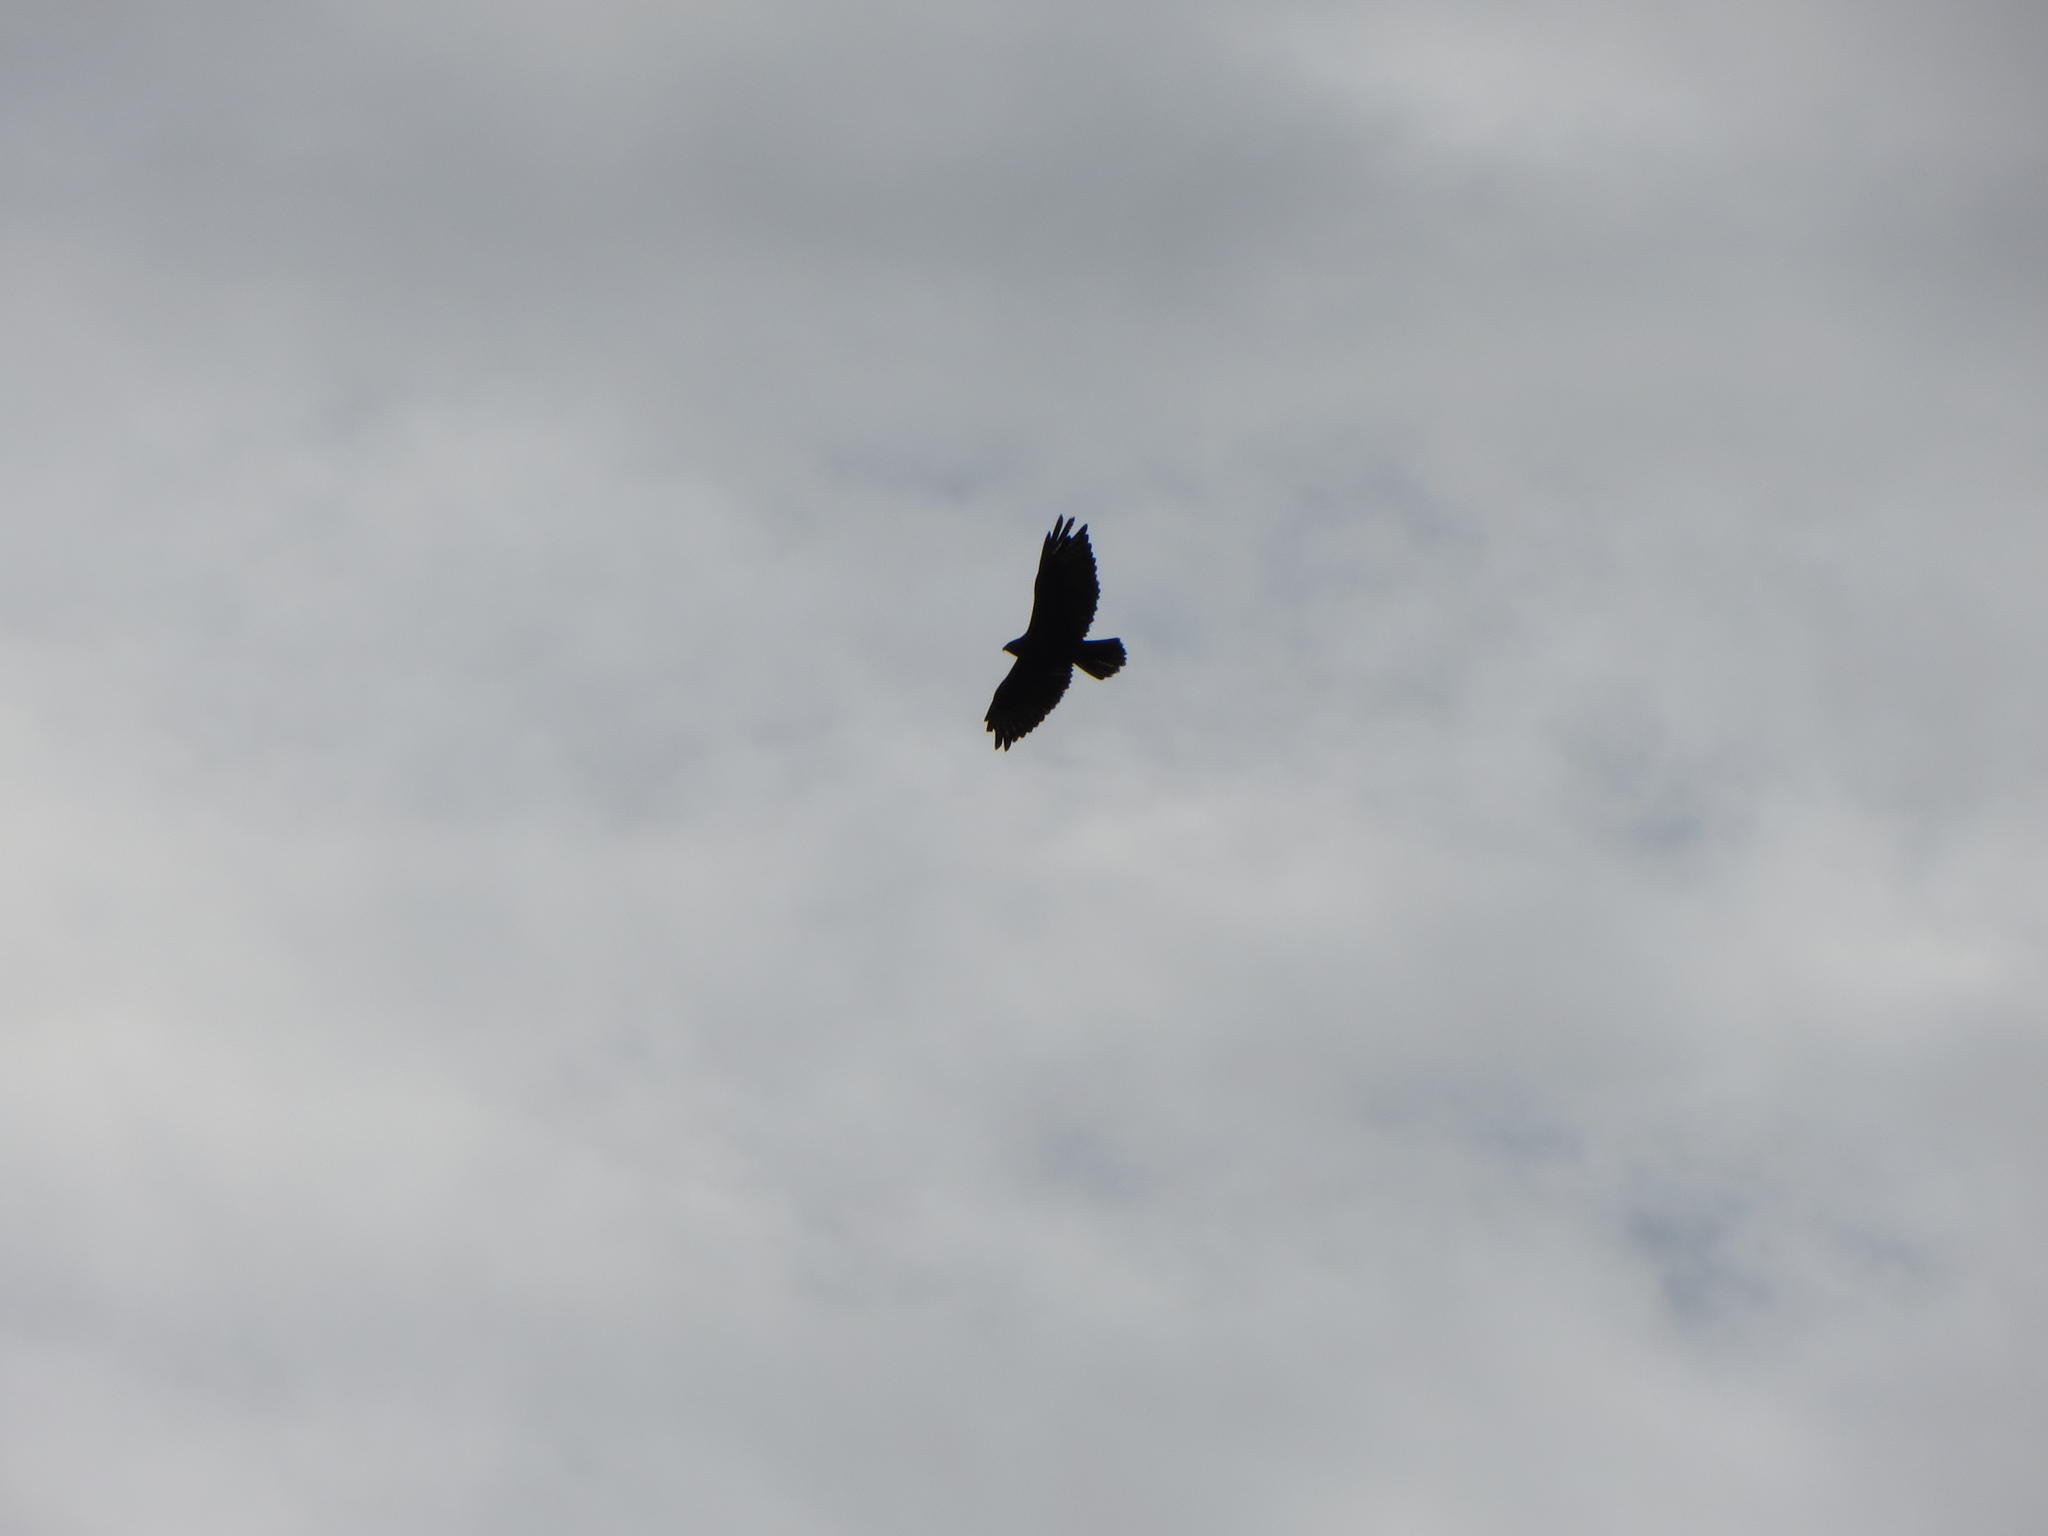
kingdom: Animalia
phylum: Chordata
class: Aves
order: Accipitriformes
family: Accipitridae
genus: Buteo
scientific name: Buteo buteo
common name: Common buzzard
